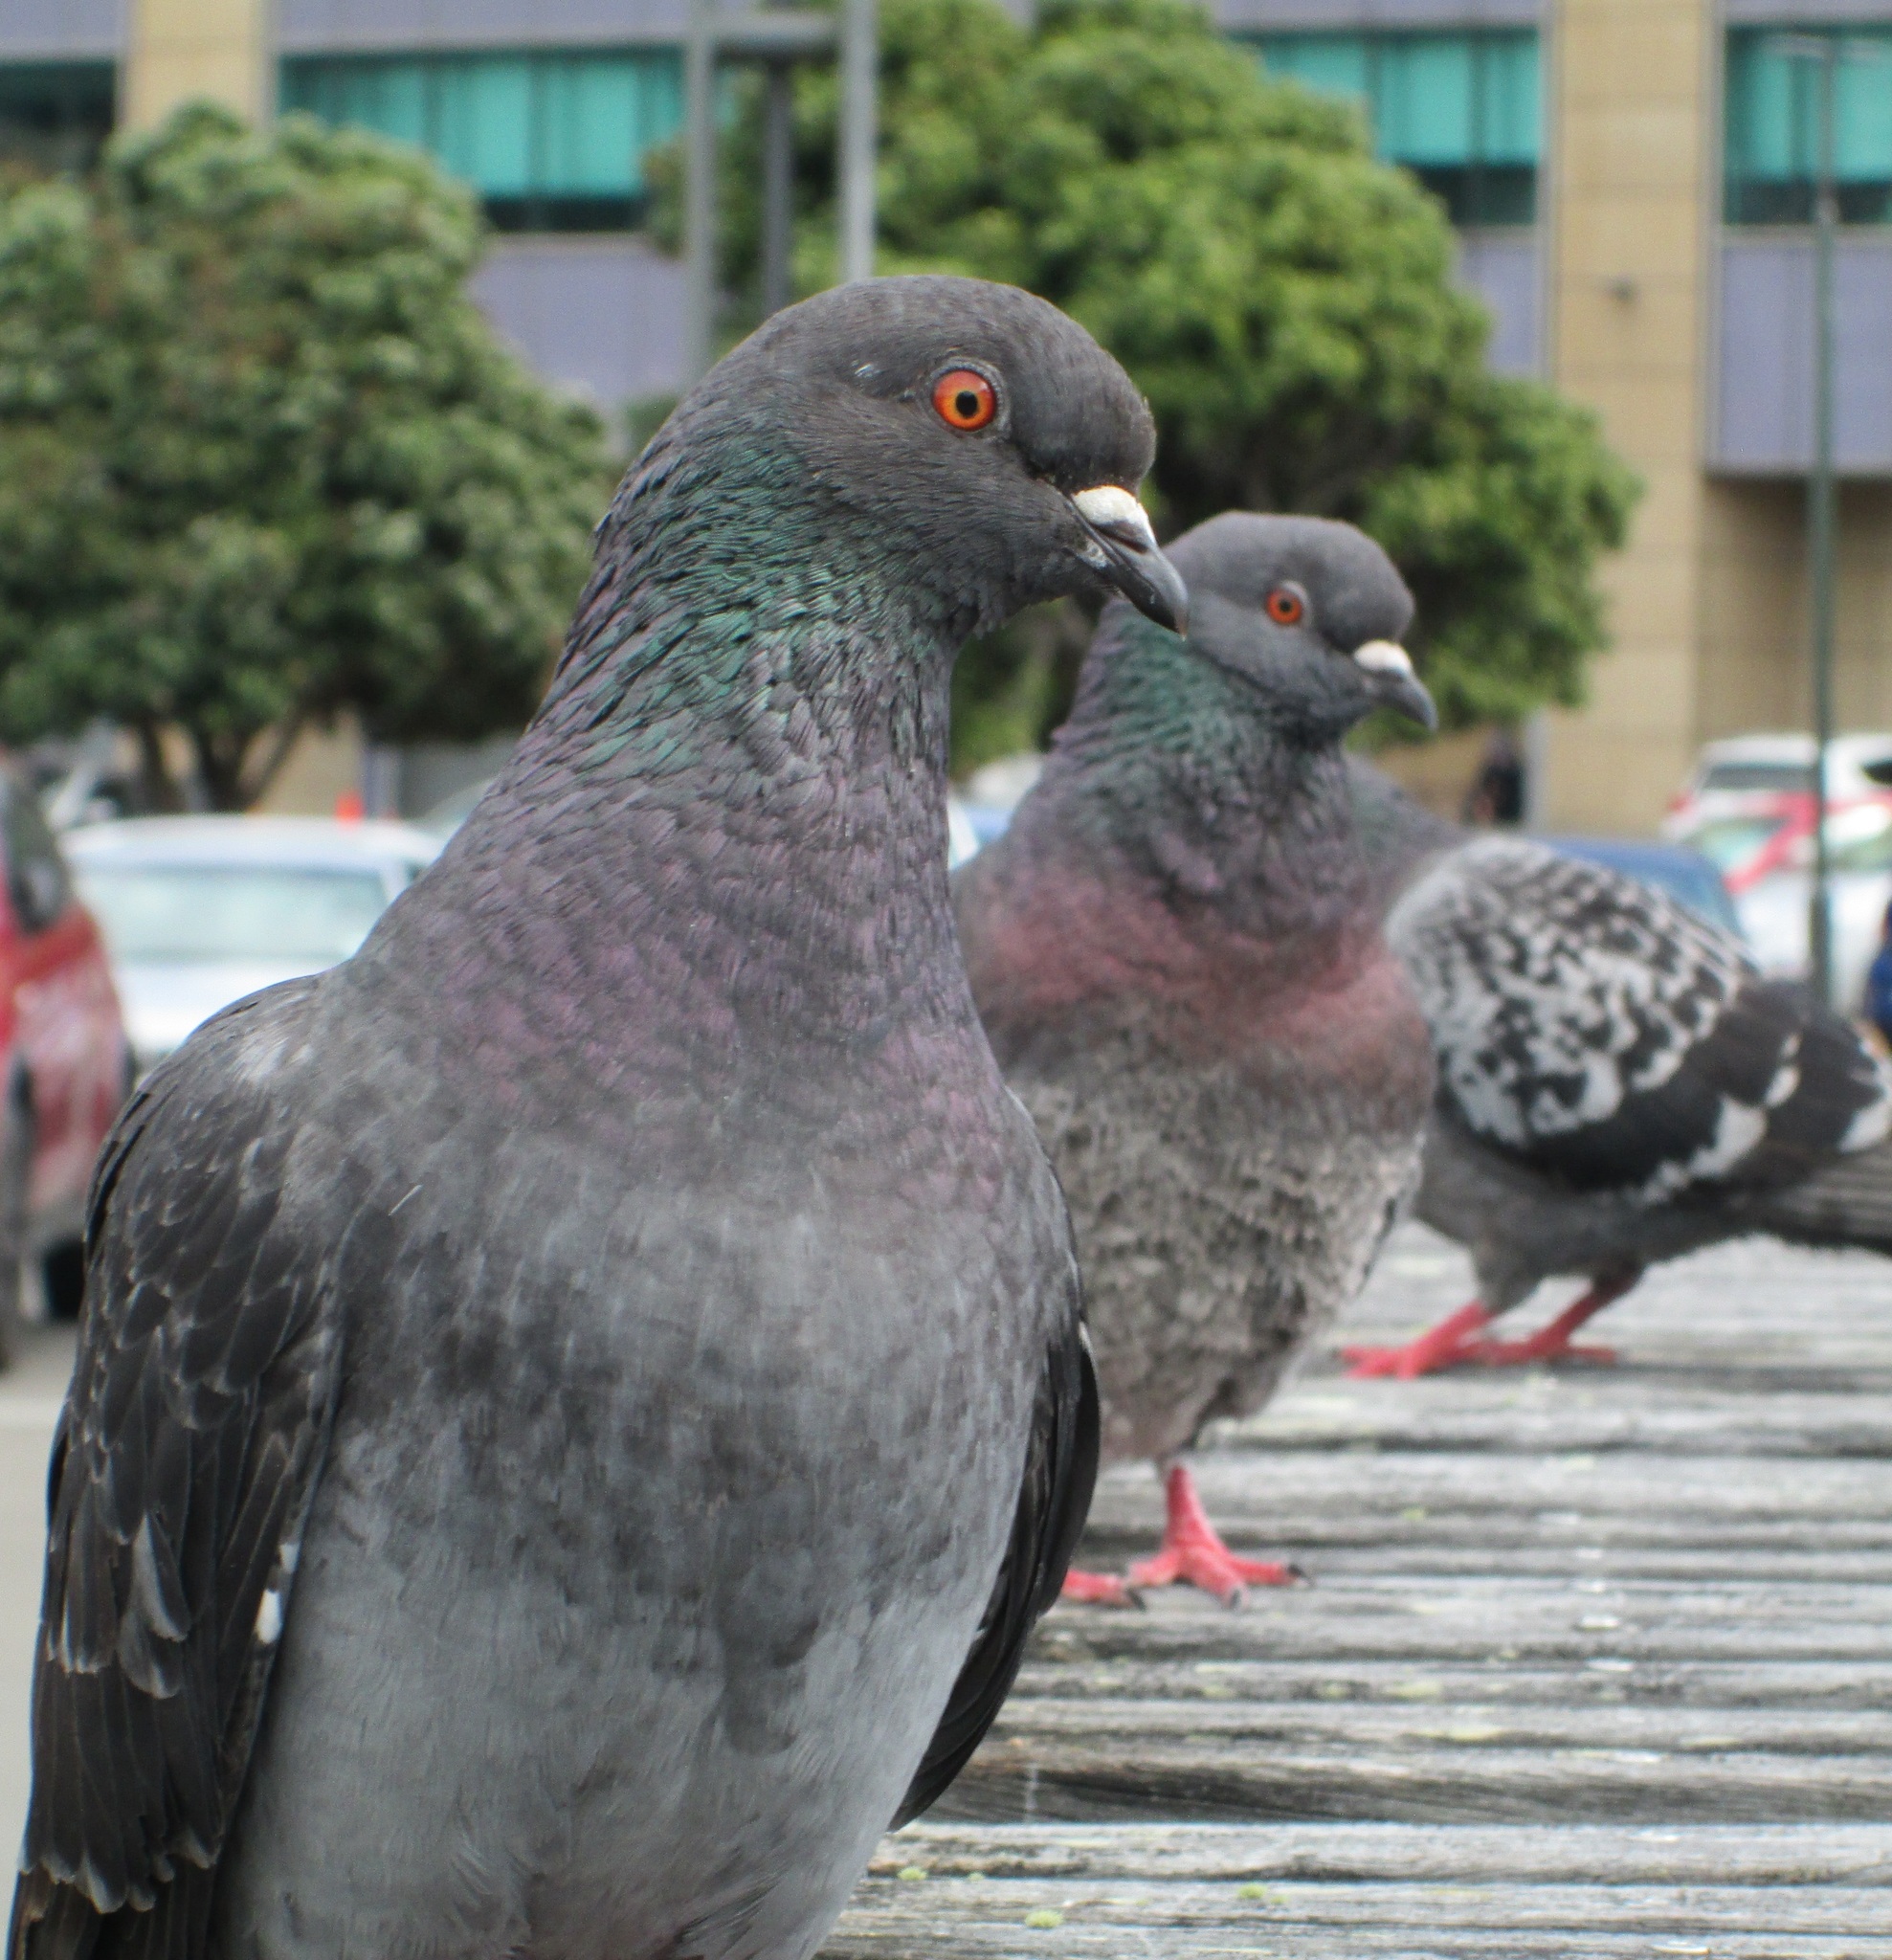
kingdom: Animalia
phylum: Chordata
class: Aves
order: Columbiformes
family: Columbidae
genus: Columba
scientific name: Columba livia
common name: Rock pigeon
